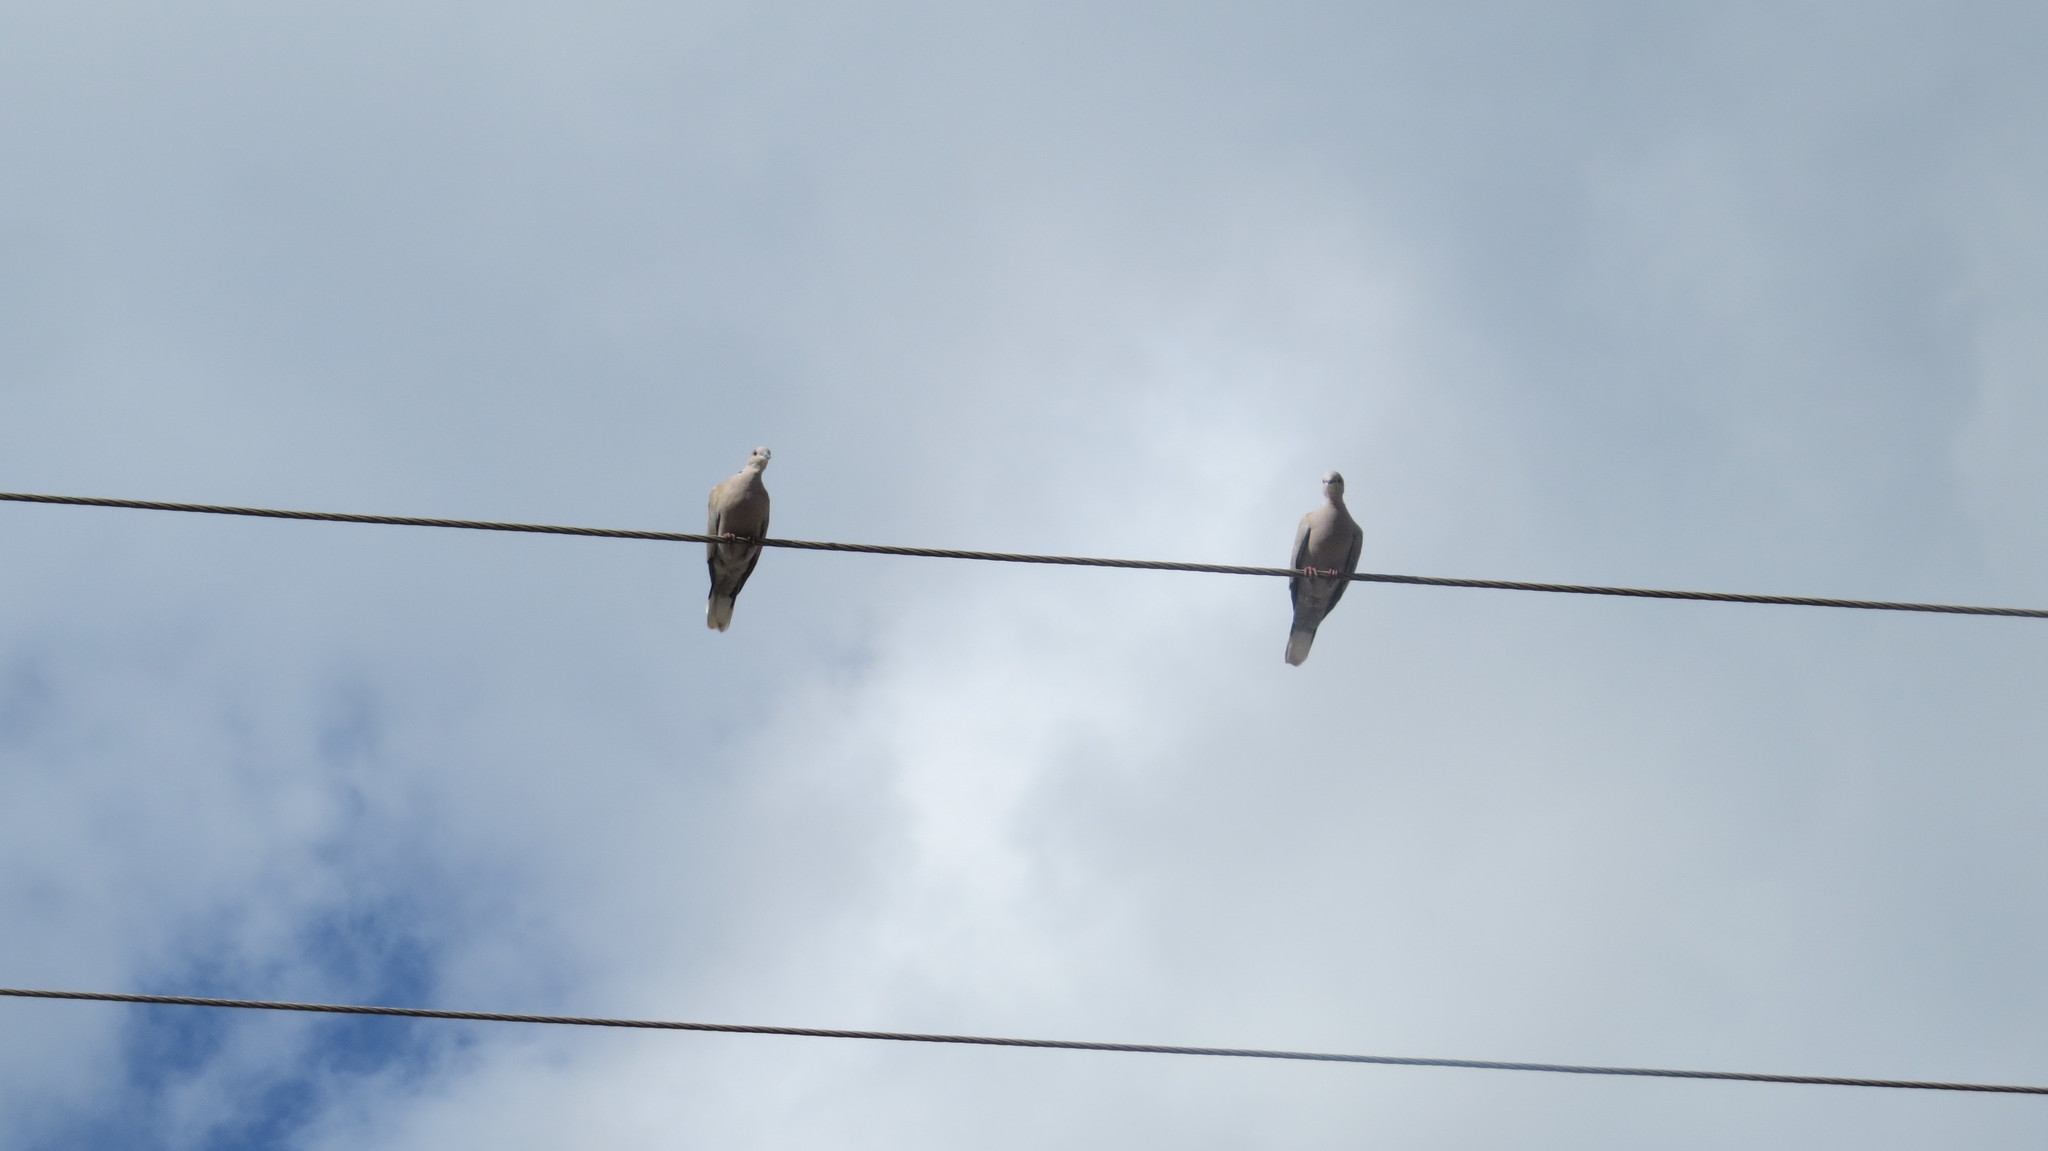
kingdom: Animalia
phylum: Chordata
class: Aves
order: Columbiformes
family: Columbidae
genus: Streptopelia
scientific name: Streptopelia decaocto
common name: Eurasian collared dove
